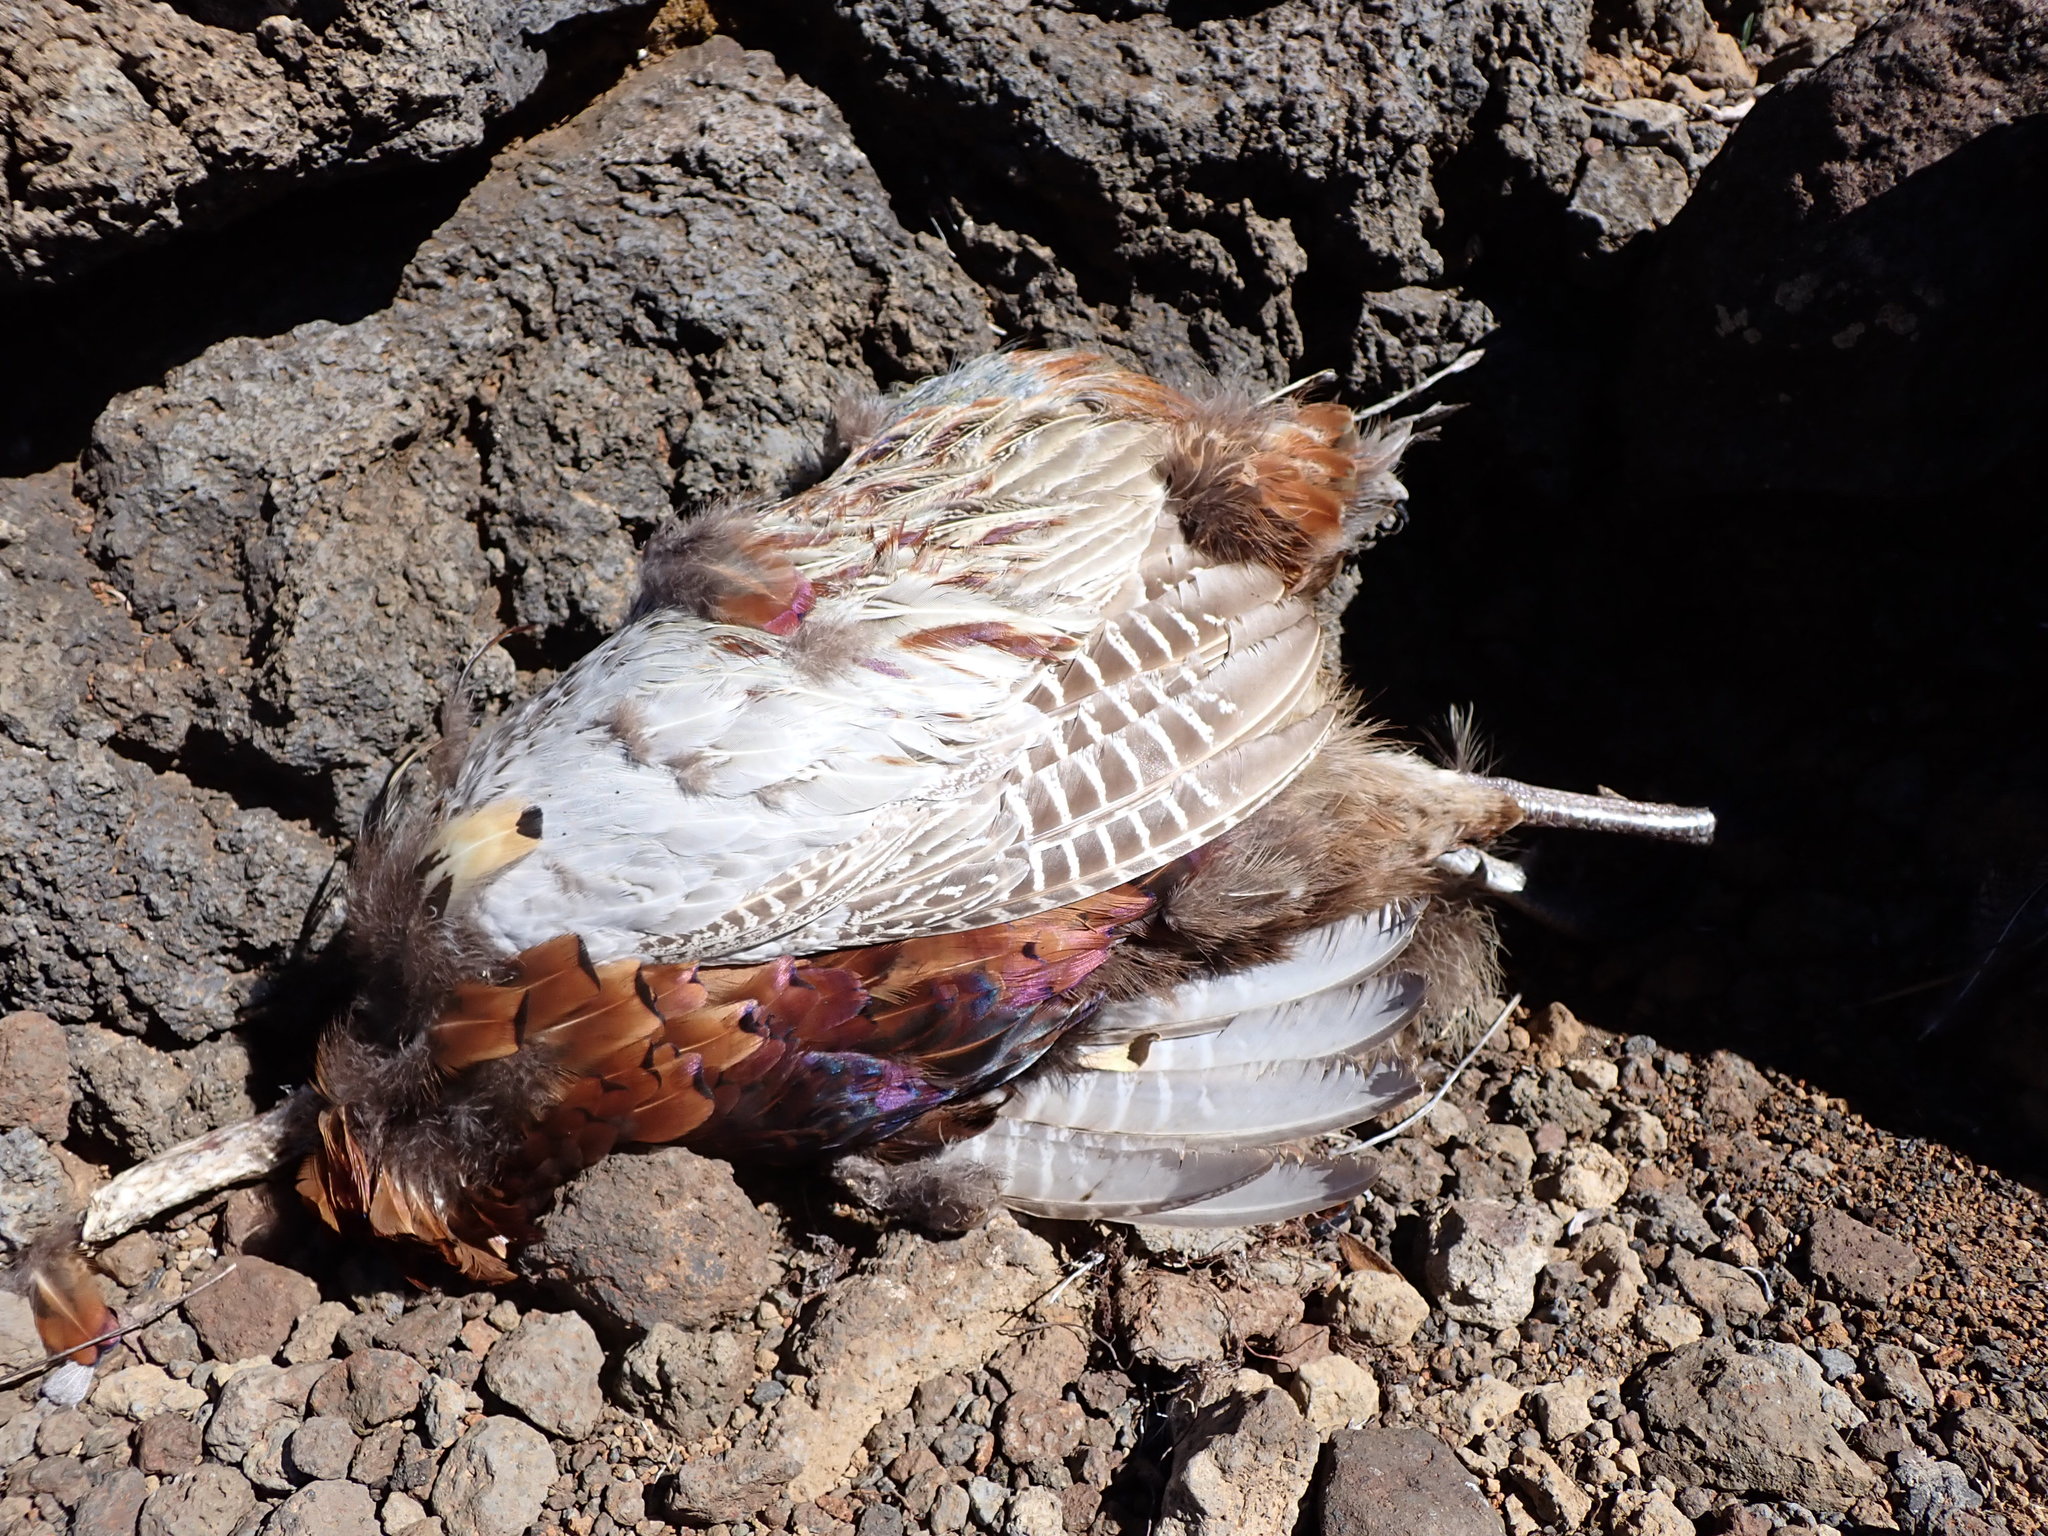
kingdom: Animalia
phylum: Chordata
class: Aves
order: Galliformes
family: Phasianidae
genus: Phasianus
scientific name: Phasianus colchicus
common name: Common pheasant
